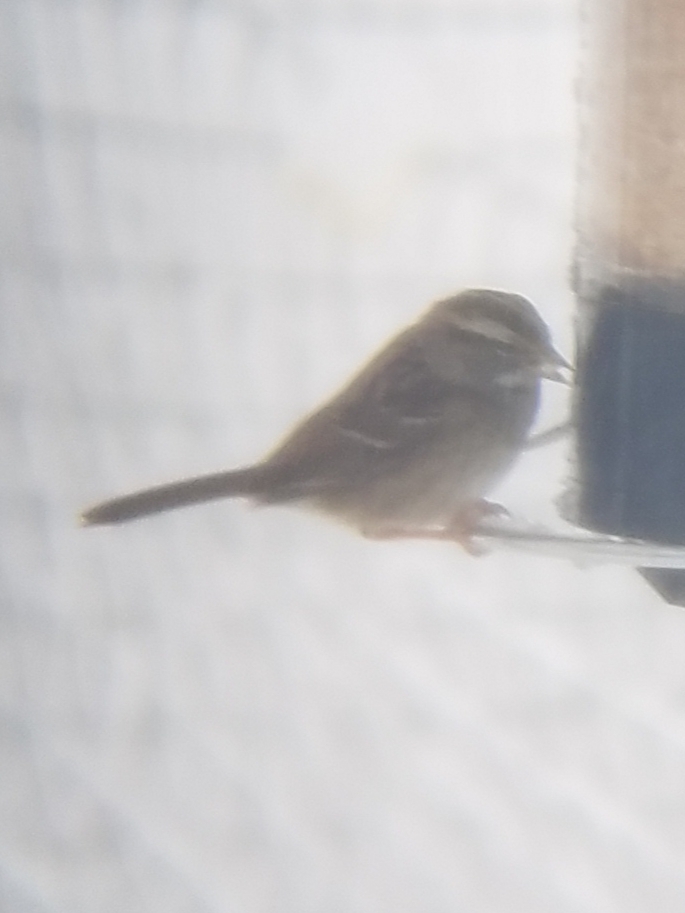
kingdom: Animalia
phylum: Chordata
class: Aves
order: Passeriformes
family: Passerellidae
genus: Zonotrichia
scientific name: Zonotrichia albicollis
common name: White-throated sparrow
